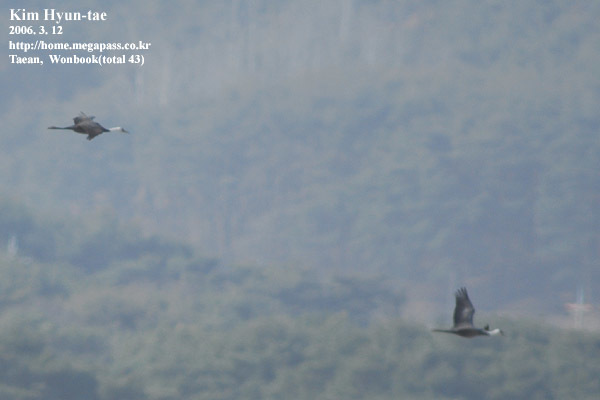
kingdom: Animalia
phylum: Chordata
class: Aves
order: Gruiformes
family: Gruidae
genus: Grus
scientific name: Grus monacha
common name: Hooded crane
